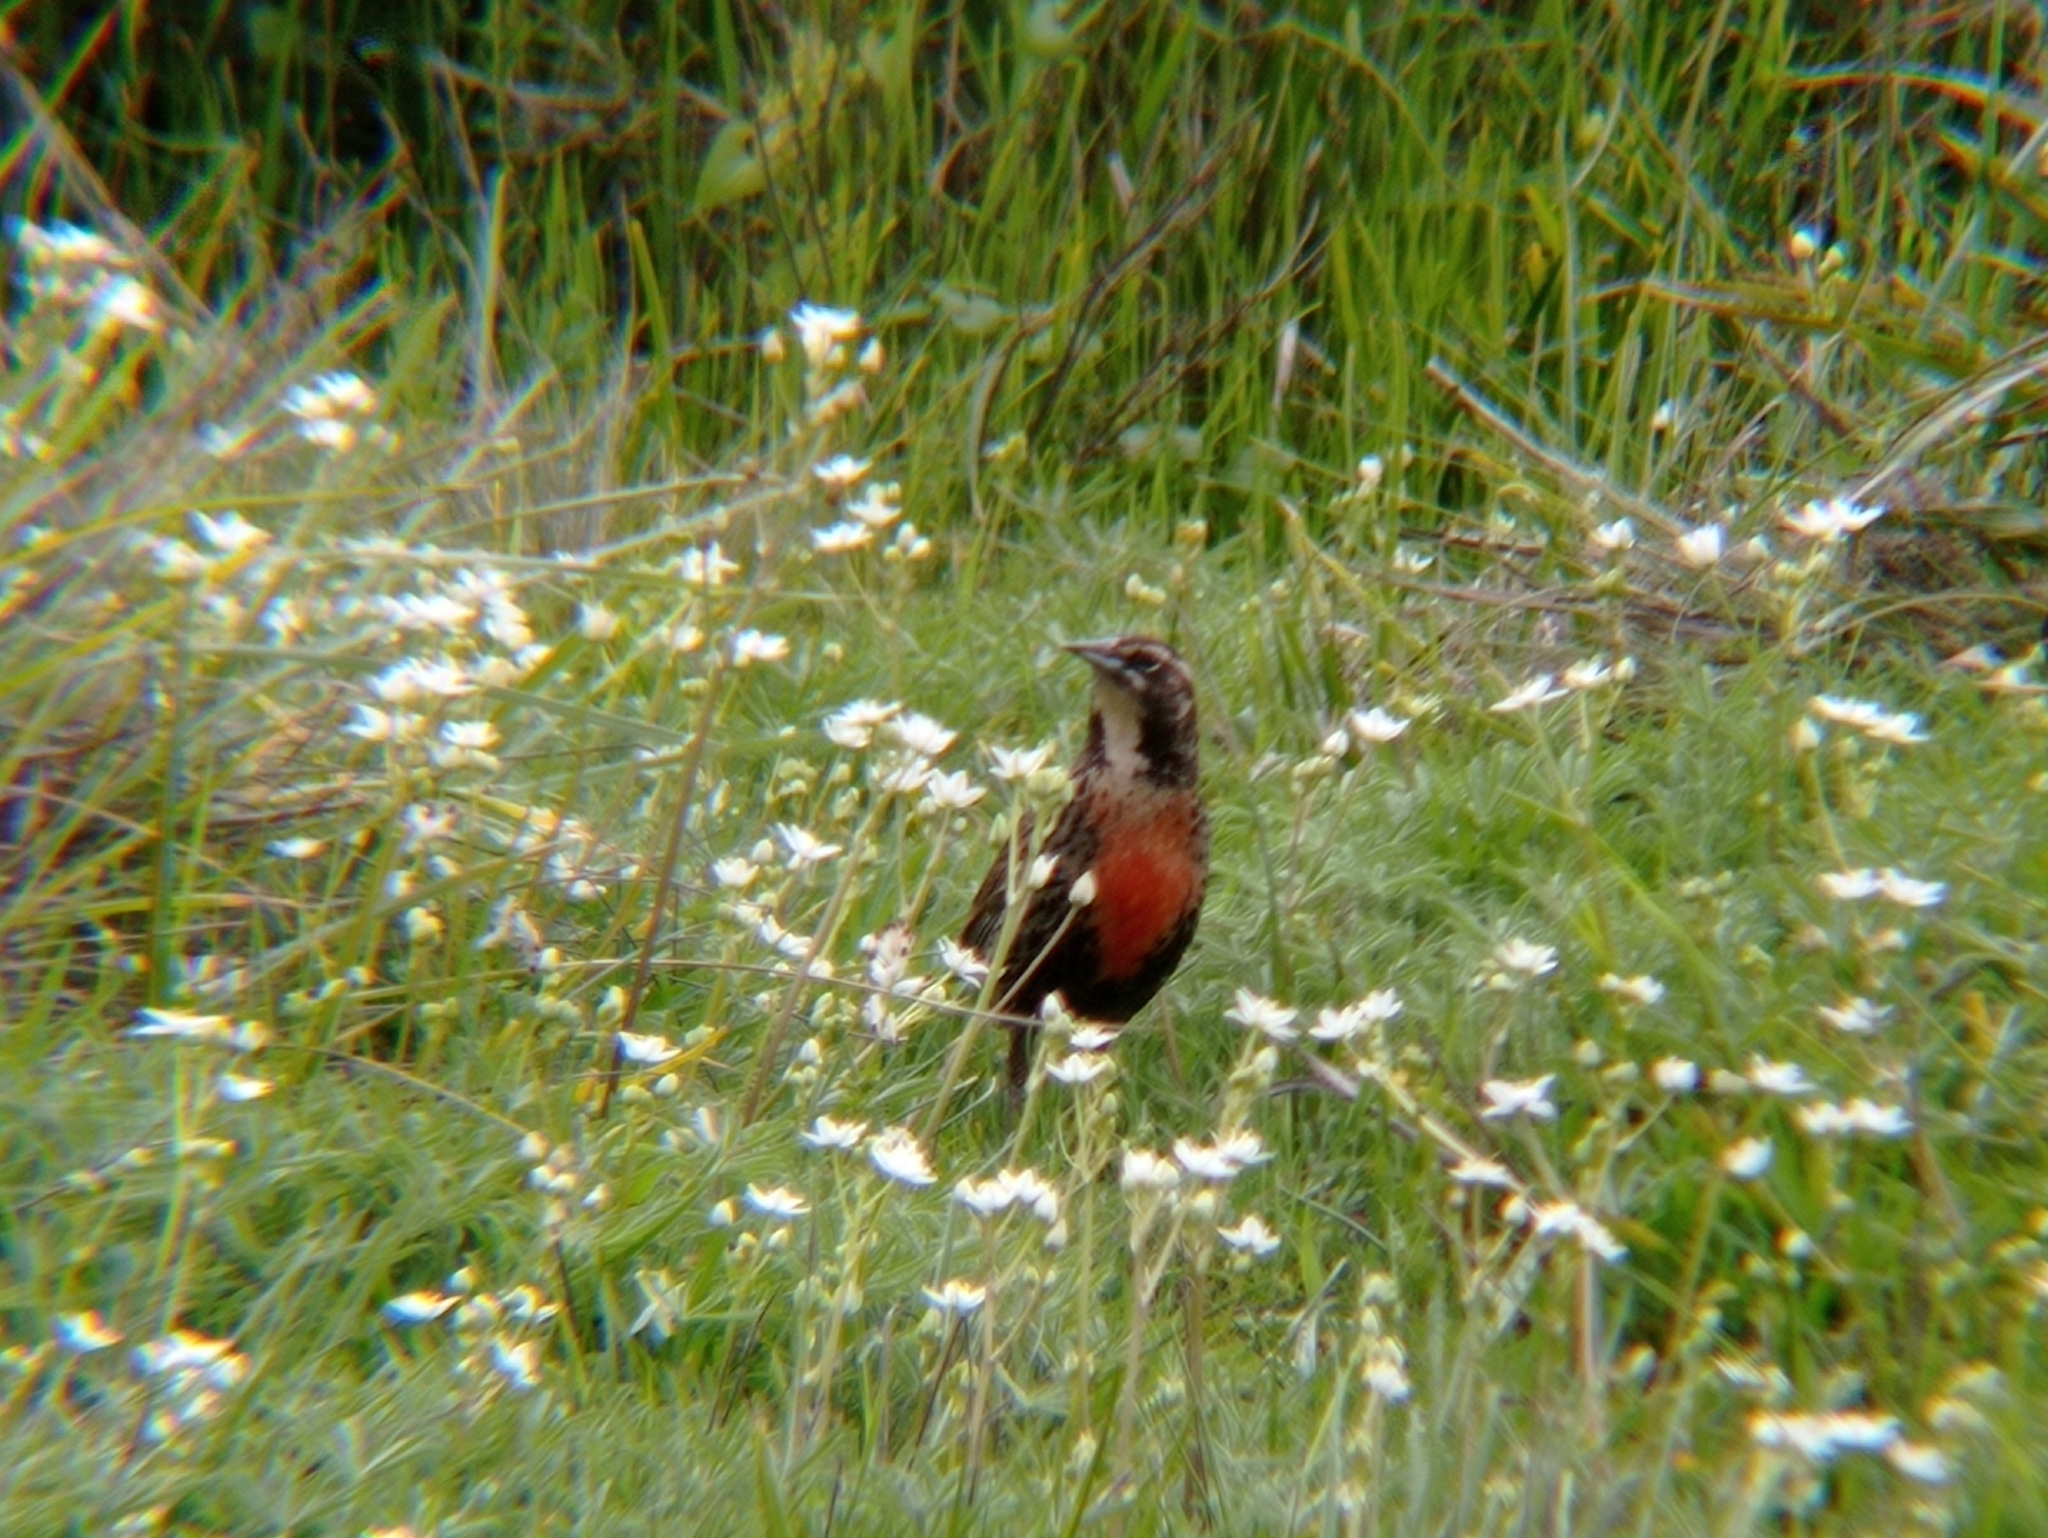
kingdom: Animalia
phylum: Chordata
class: Aves
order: Passeriformes
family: Icteridae
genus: Sturnella
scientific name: Sturnella loyca
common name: Long-tailed meadowlark
